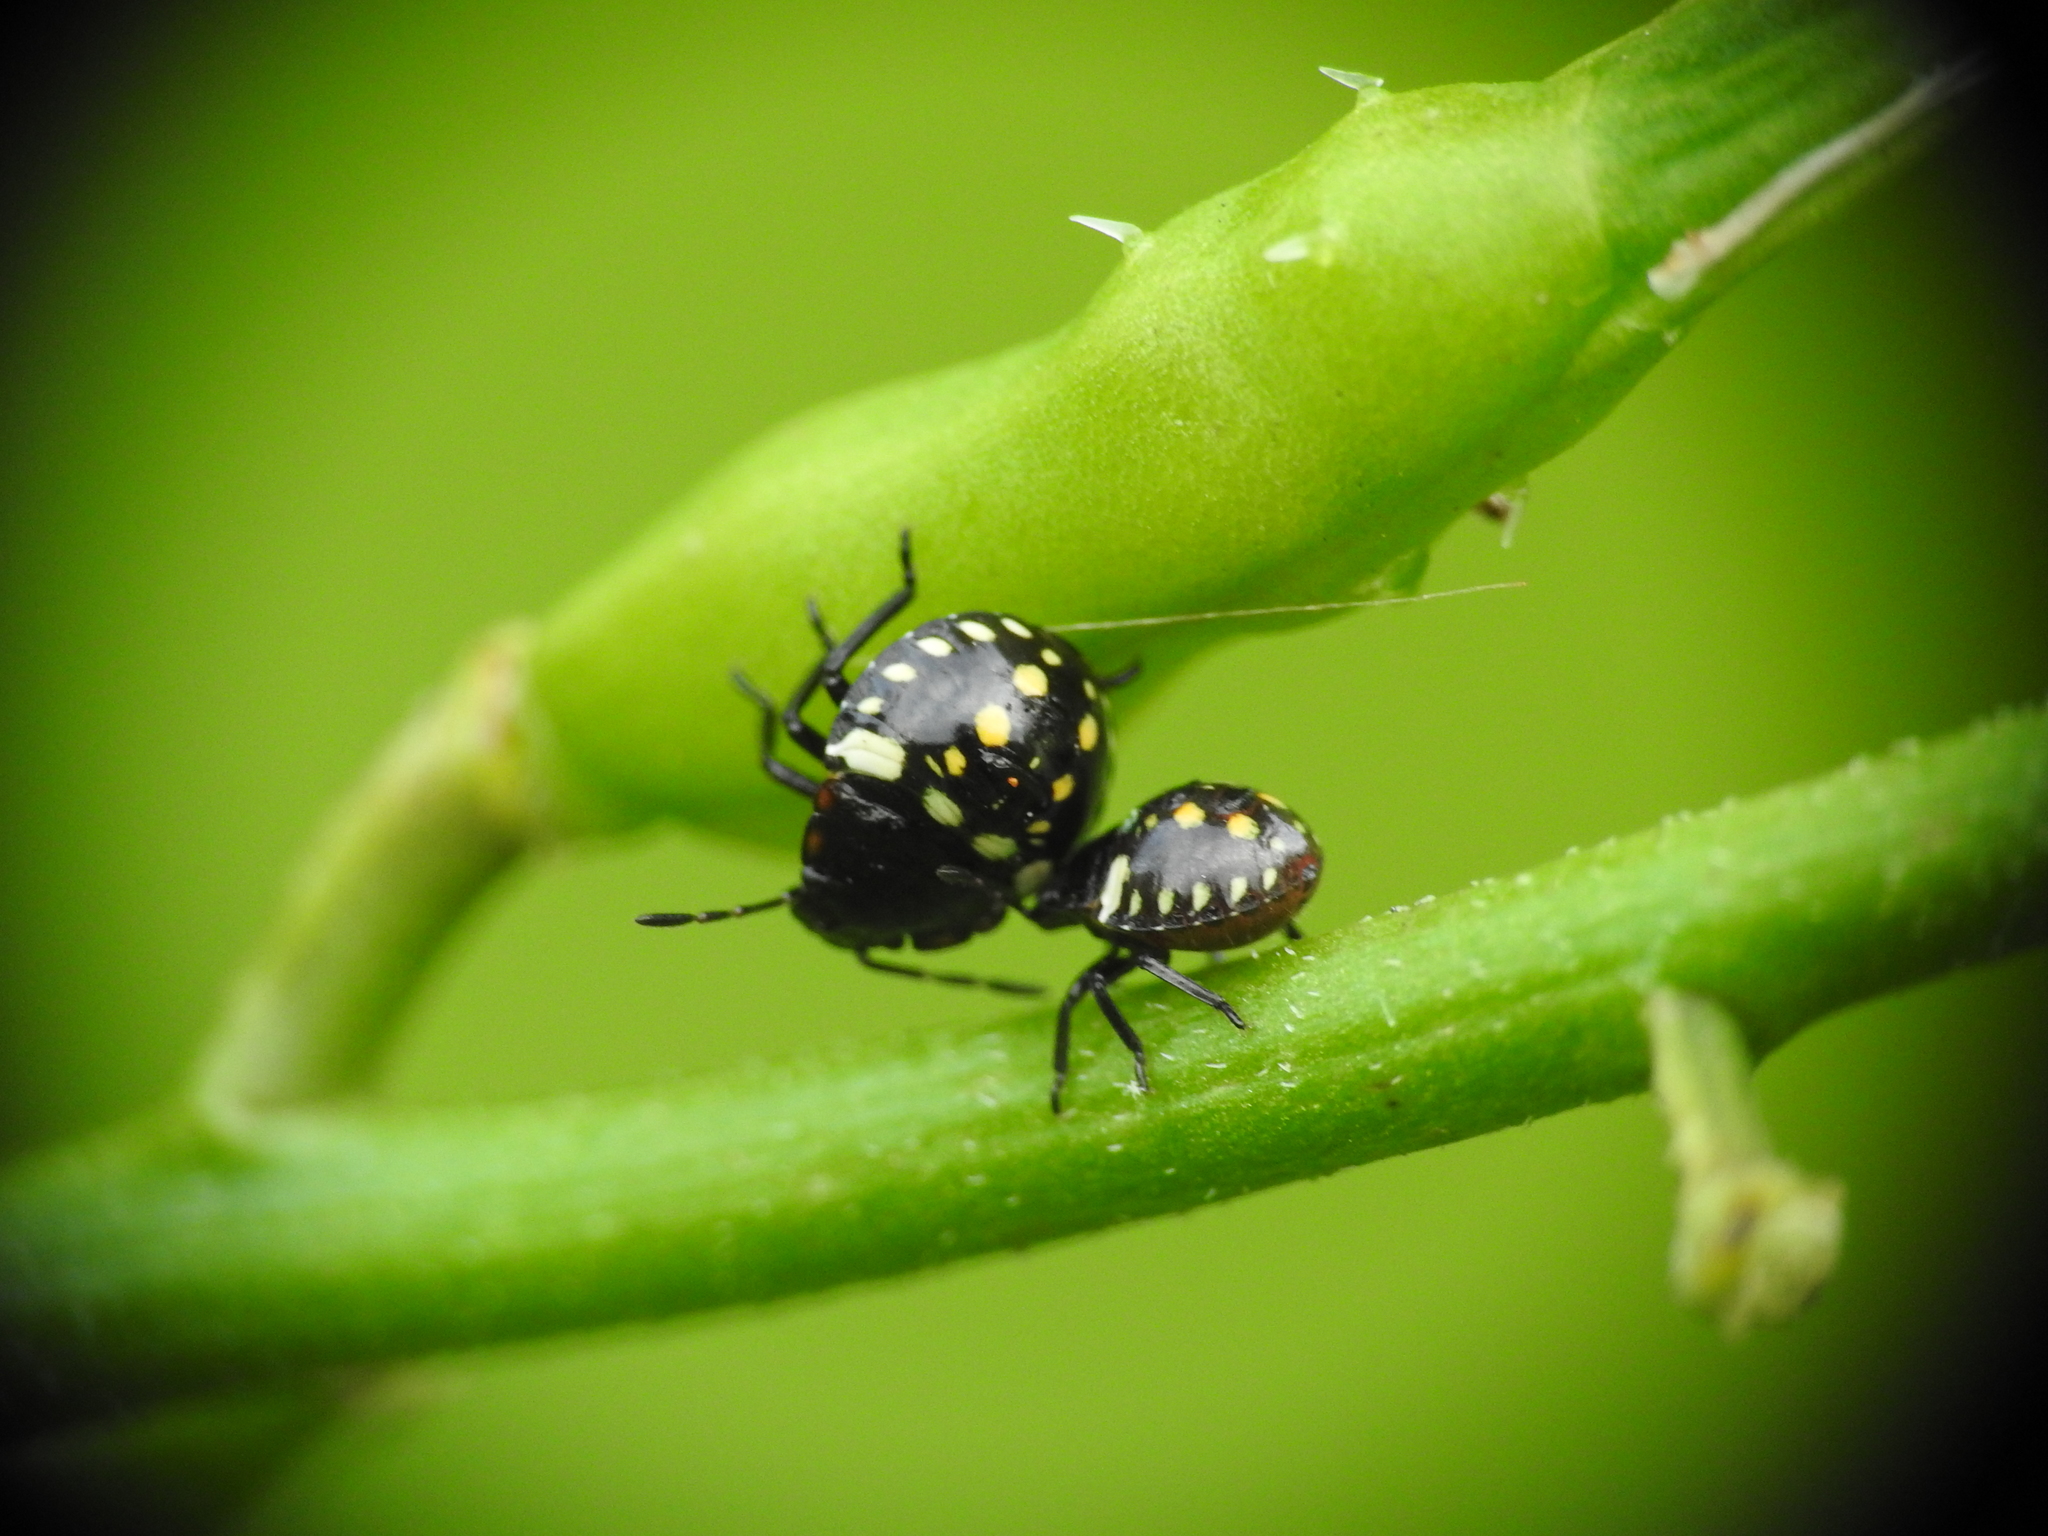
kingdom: Animalia
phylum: Arthropoda
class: Insecta
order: Hemiptera
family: Pentatomidae
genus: Nezara
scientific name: Nezara viridula
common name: Southern green stink bug
